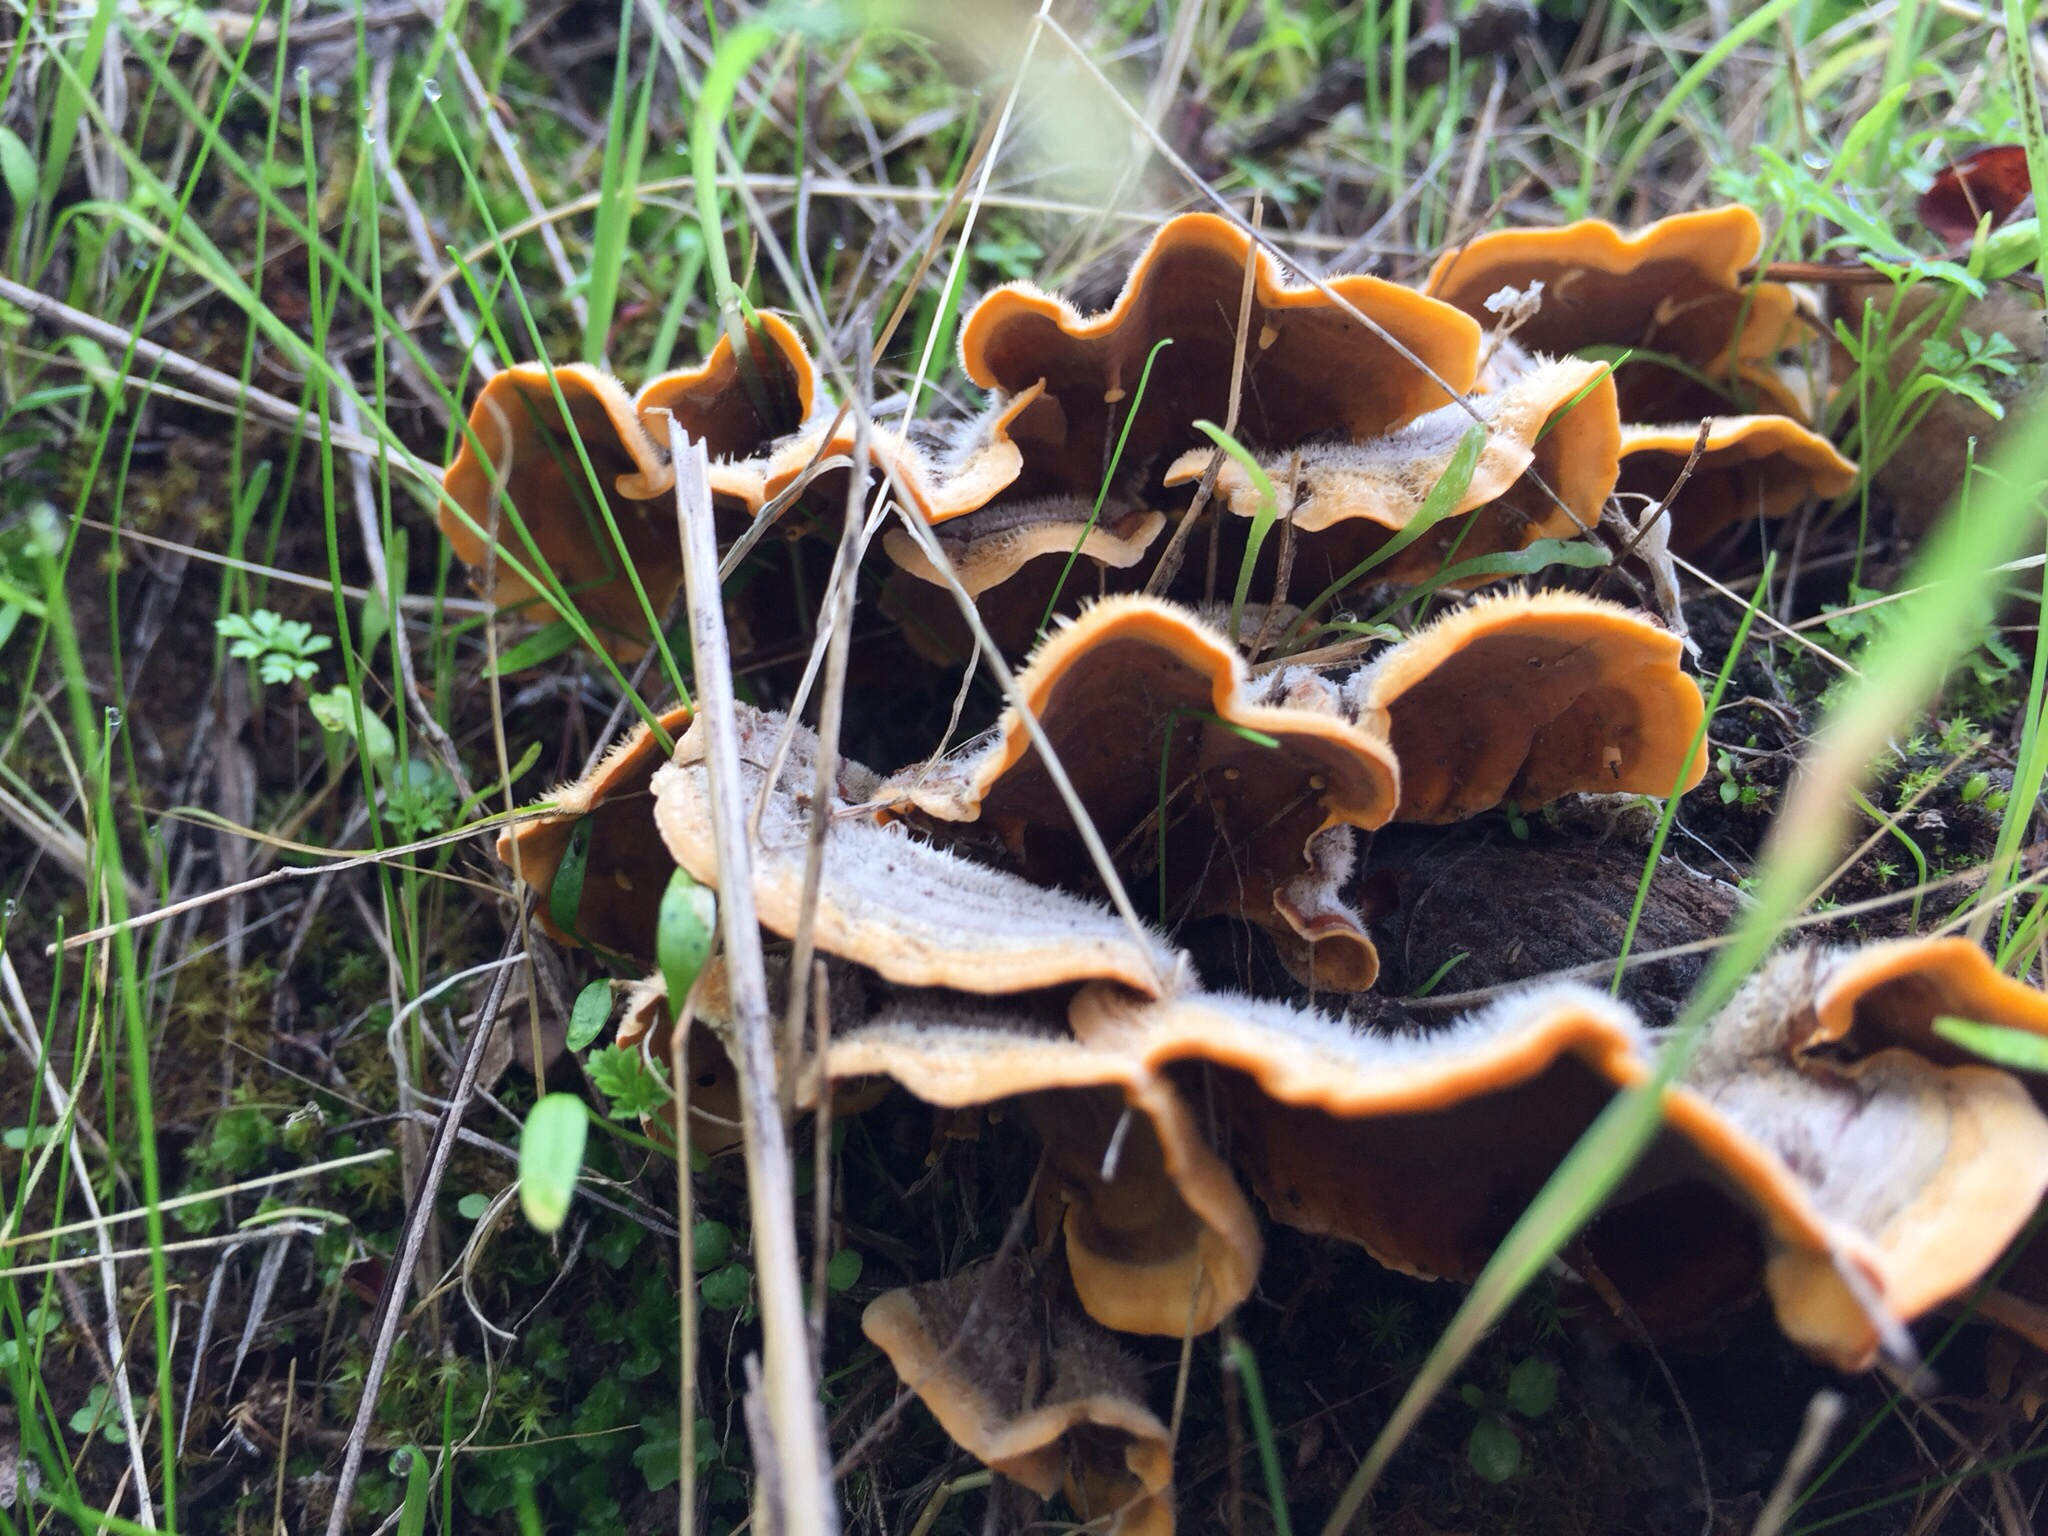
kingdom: Fungi
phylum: Basidiomycota
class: Agaricomycetes
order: Russulales
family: Stereaceae
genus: Stereum
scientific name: Stereum hirsutum
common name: Hairy curtain crust
